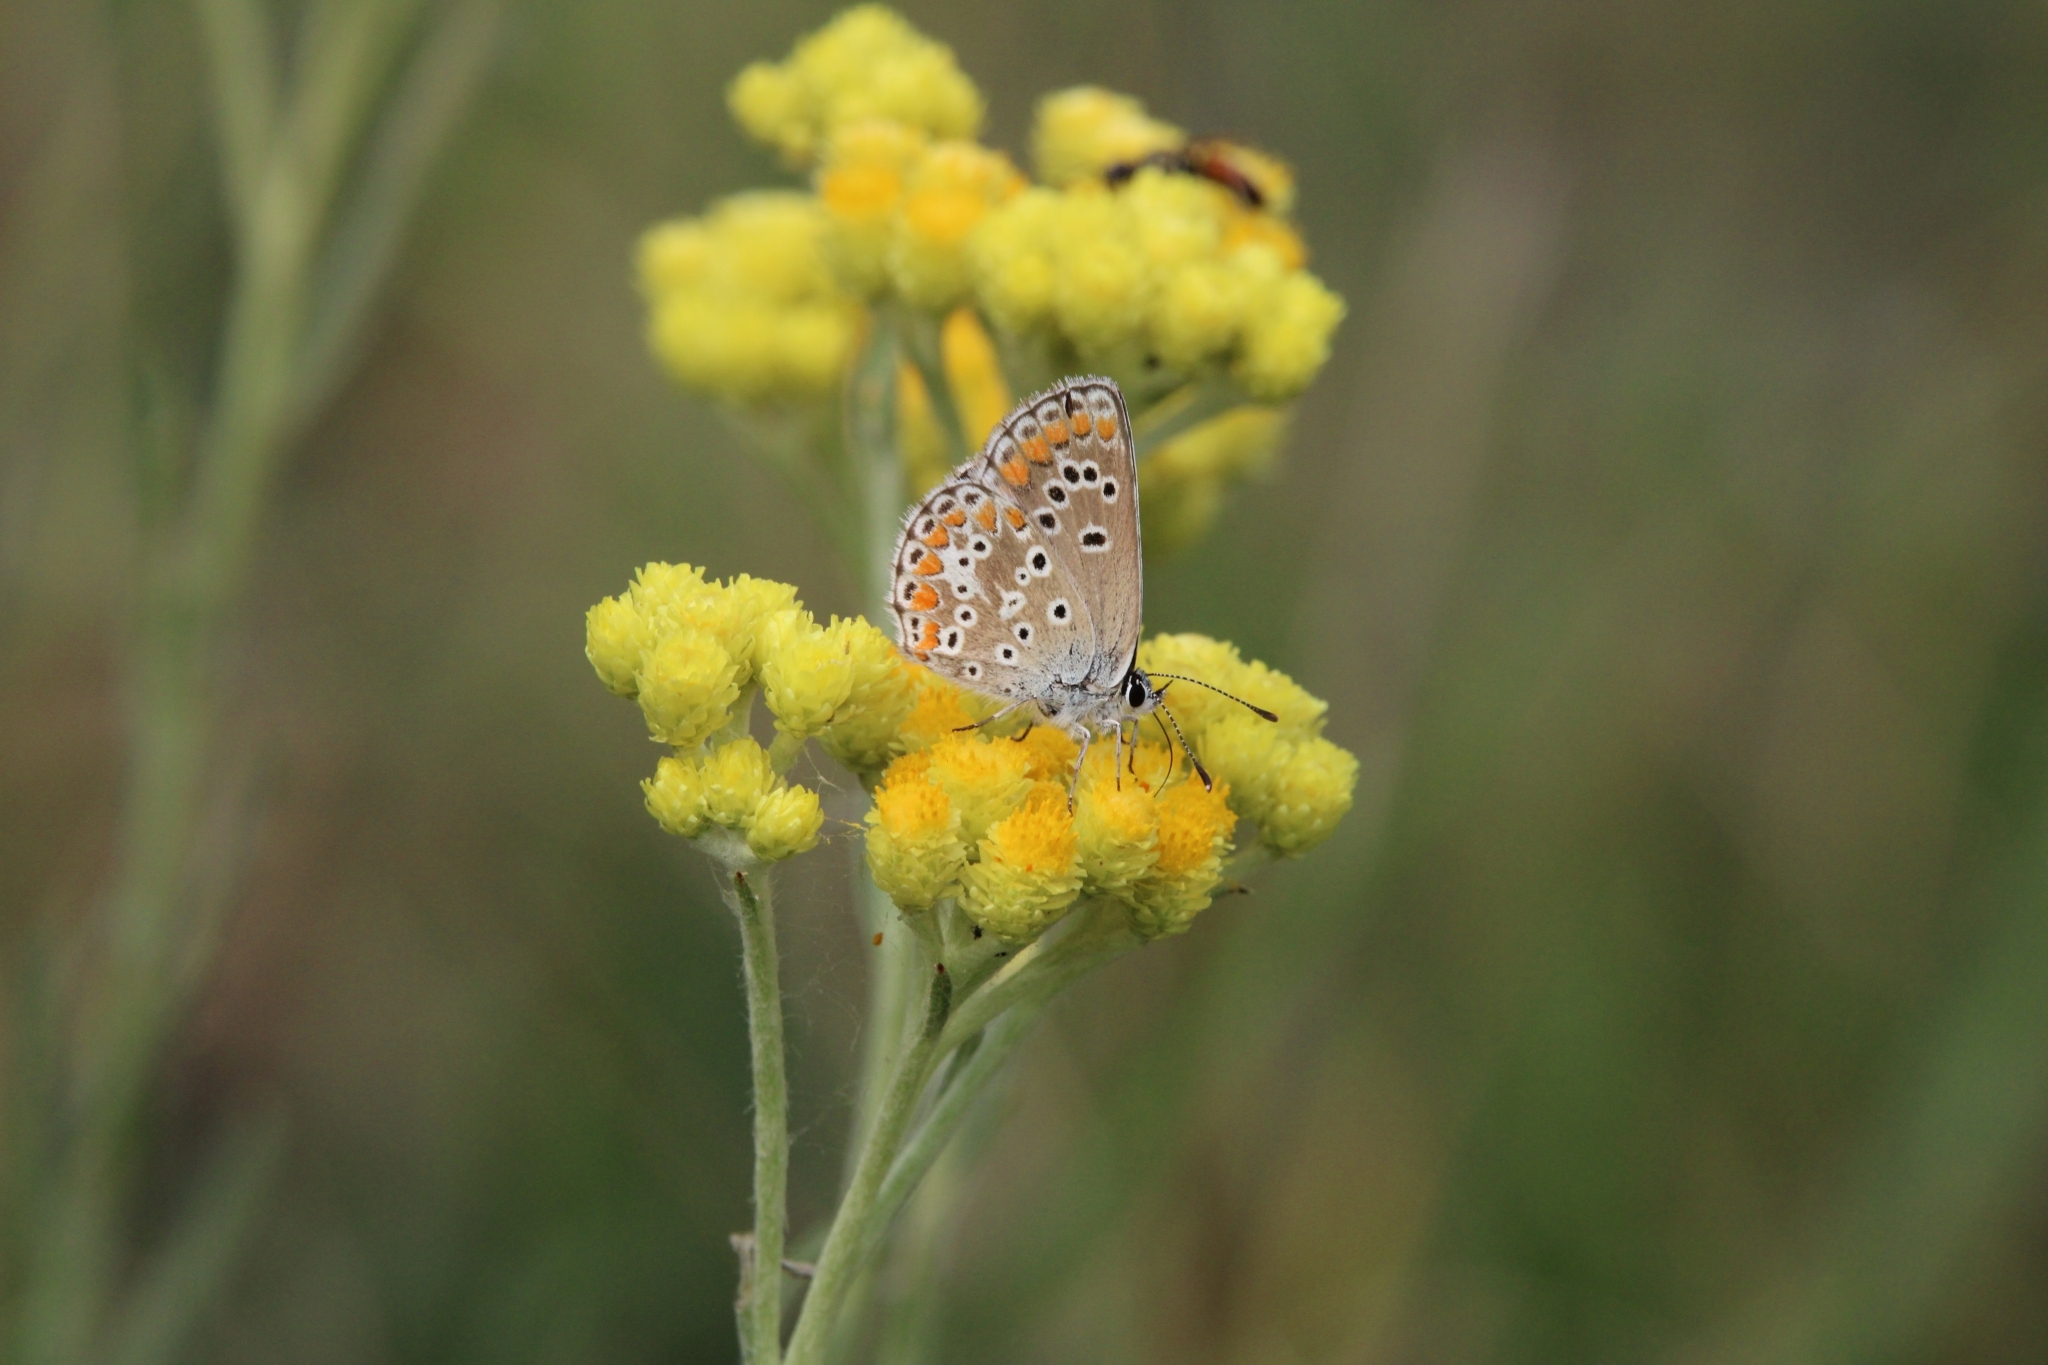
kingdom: Animalia
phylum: Arthropoda
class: Insecta
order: Lepidoptera
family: Lycaenidae
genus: Aricia
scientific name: Aricia agestis
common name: Brown argus
